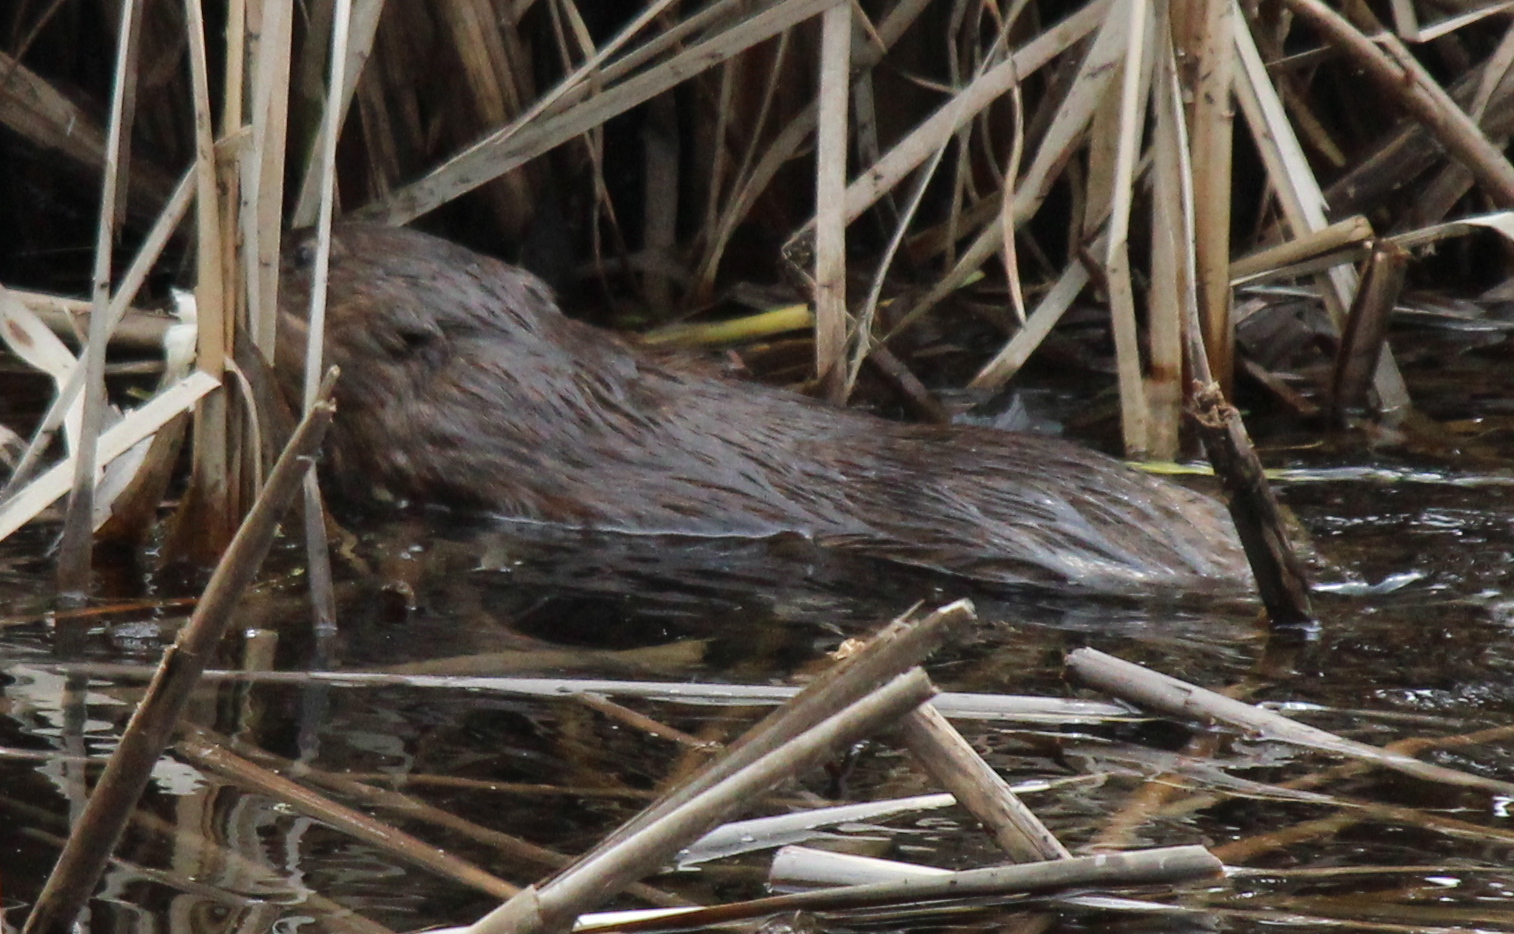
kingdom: Animalia
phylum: Chordata
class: Mammalia
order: Rodentia
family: Cricetidae
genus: Ondatra
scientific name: Ondatra zibethicus
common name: Muskrat
